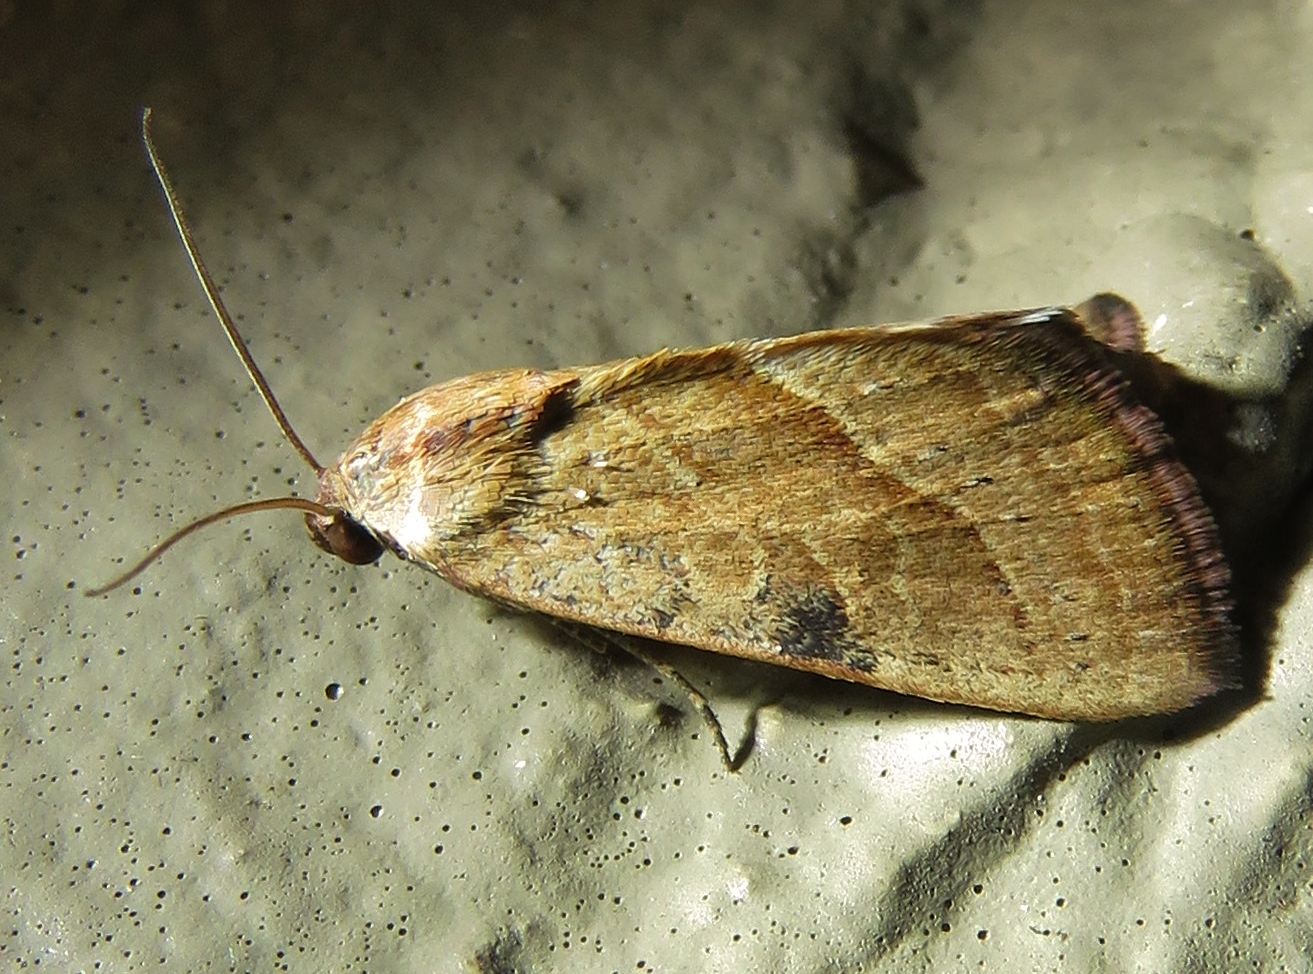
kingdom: Animalia
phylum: Arthropoda
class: Insecta
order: Lepidoptera
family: Noctuidae
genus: Galgula
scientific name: Galgula partita
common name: Wedgeling
